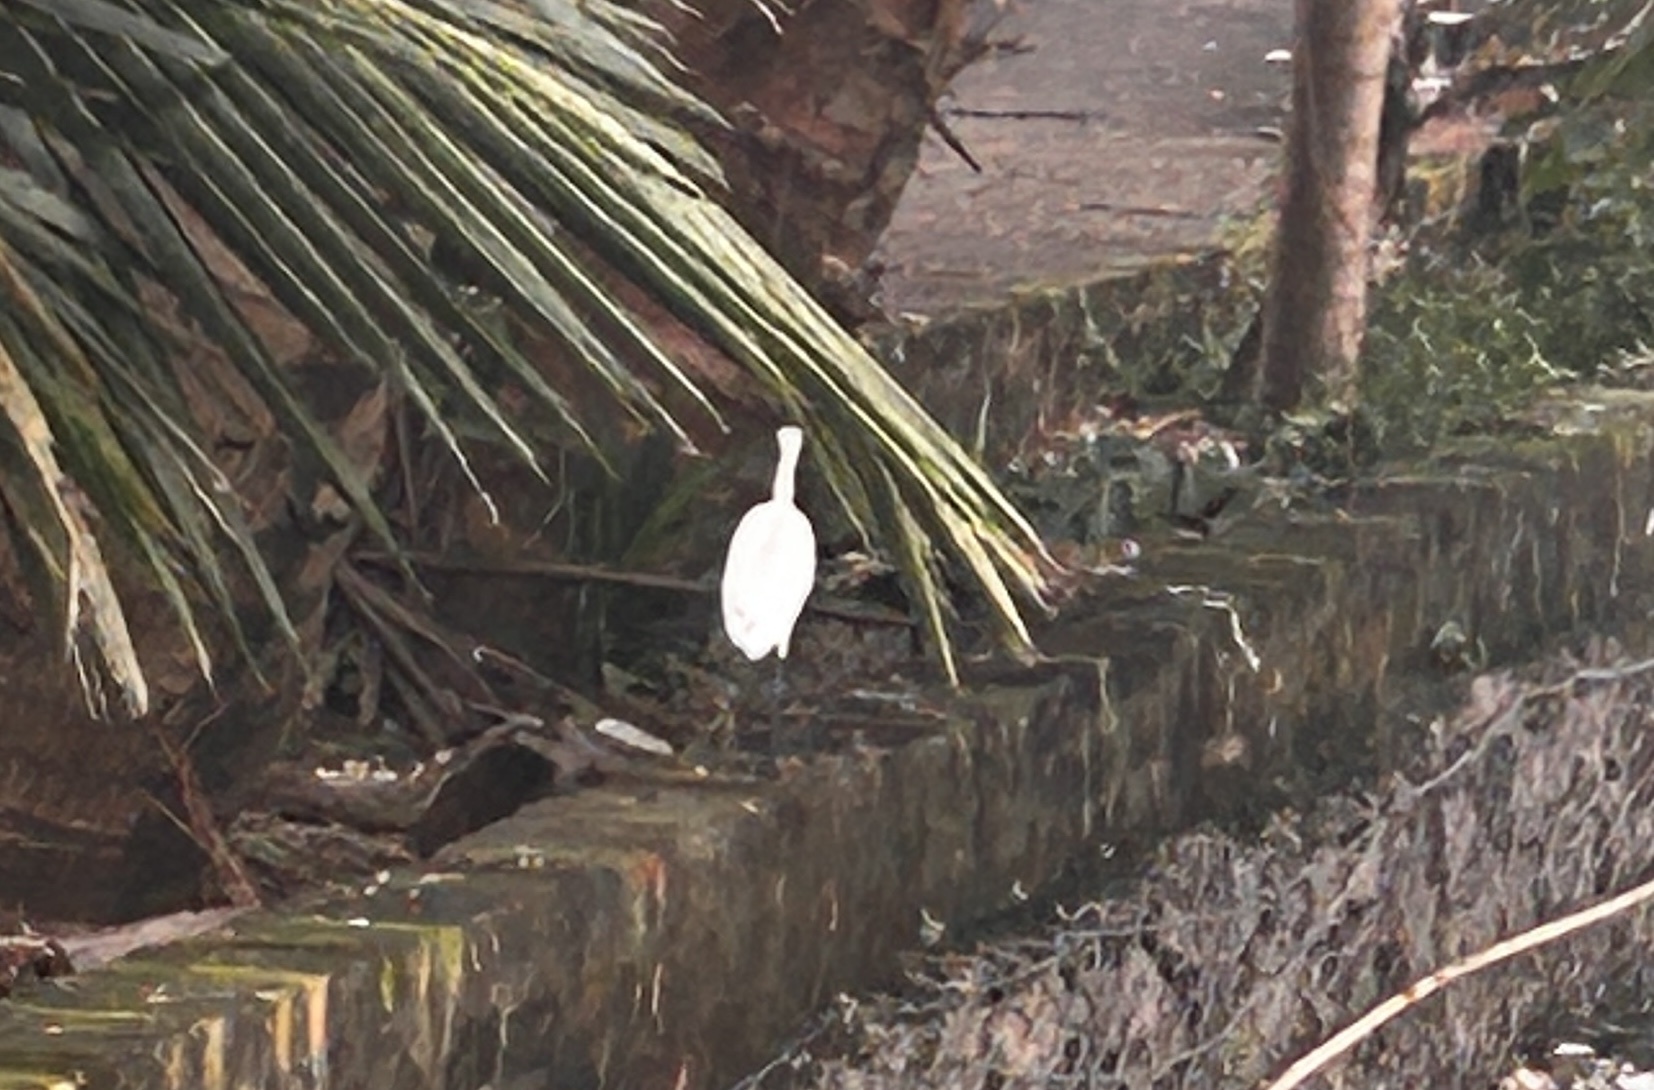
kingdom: Animalia
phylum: Chordata
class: Aves
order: Pelecaniformes
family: Ardeidae
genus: Egretta
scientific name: Egretta garzetta
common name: Little egret
